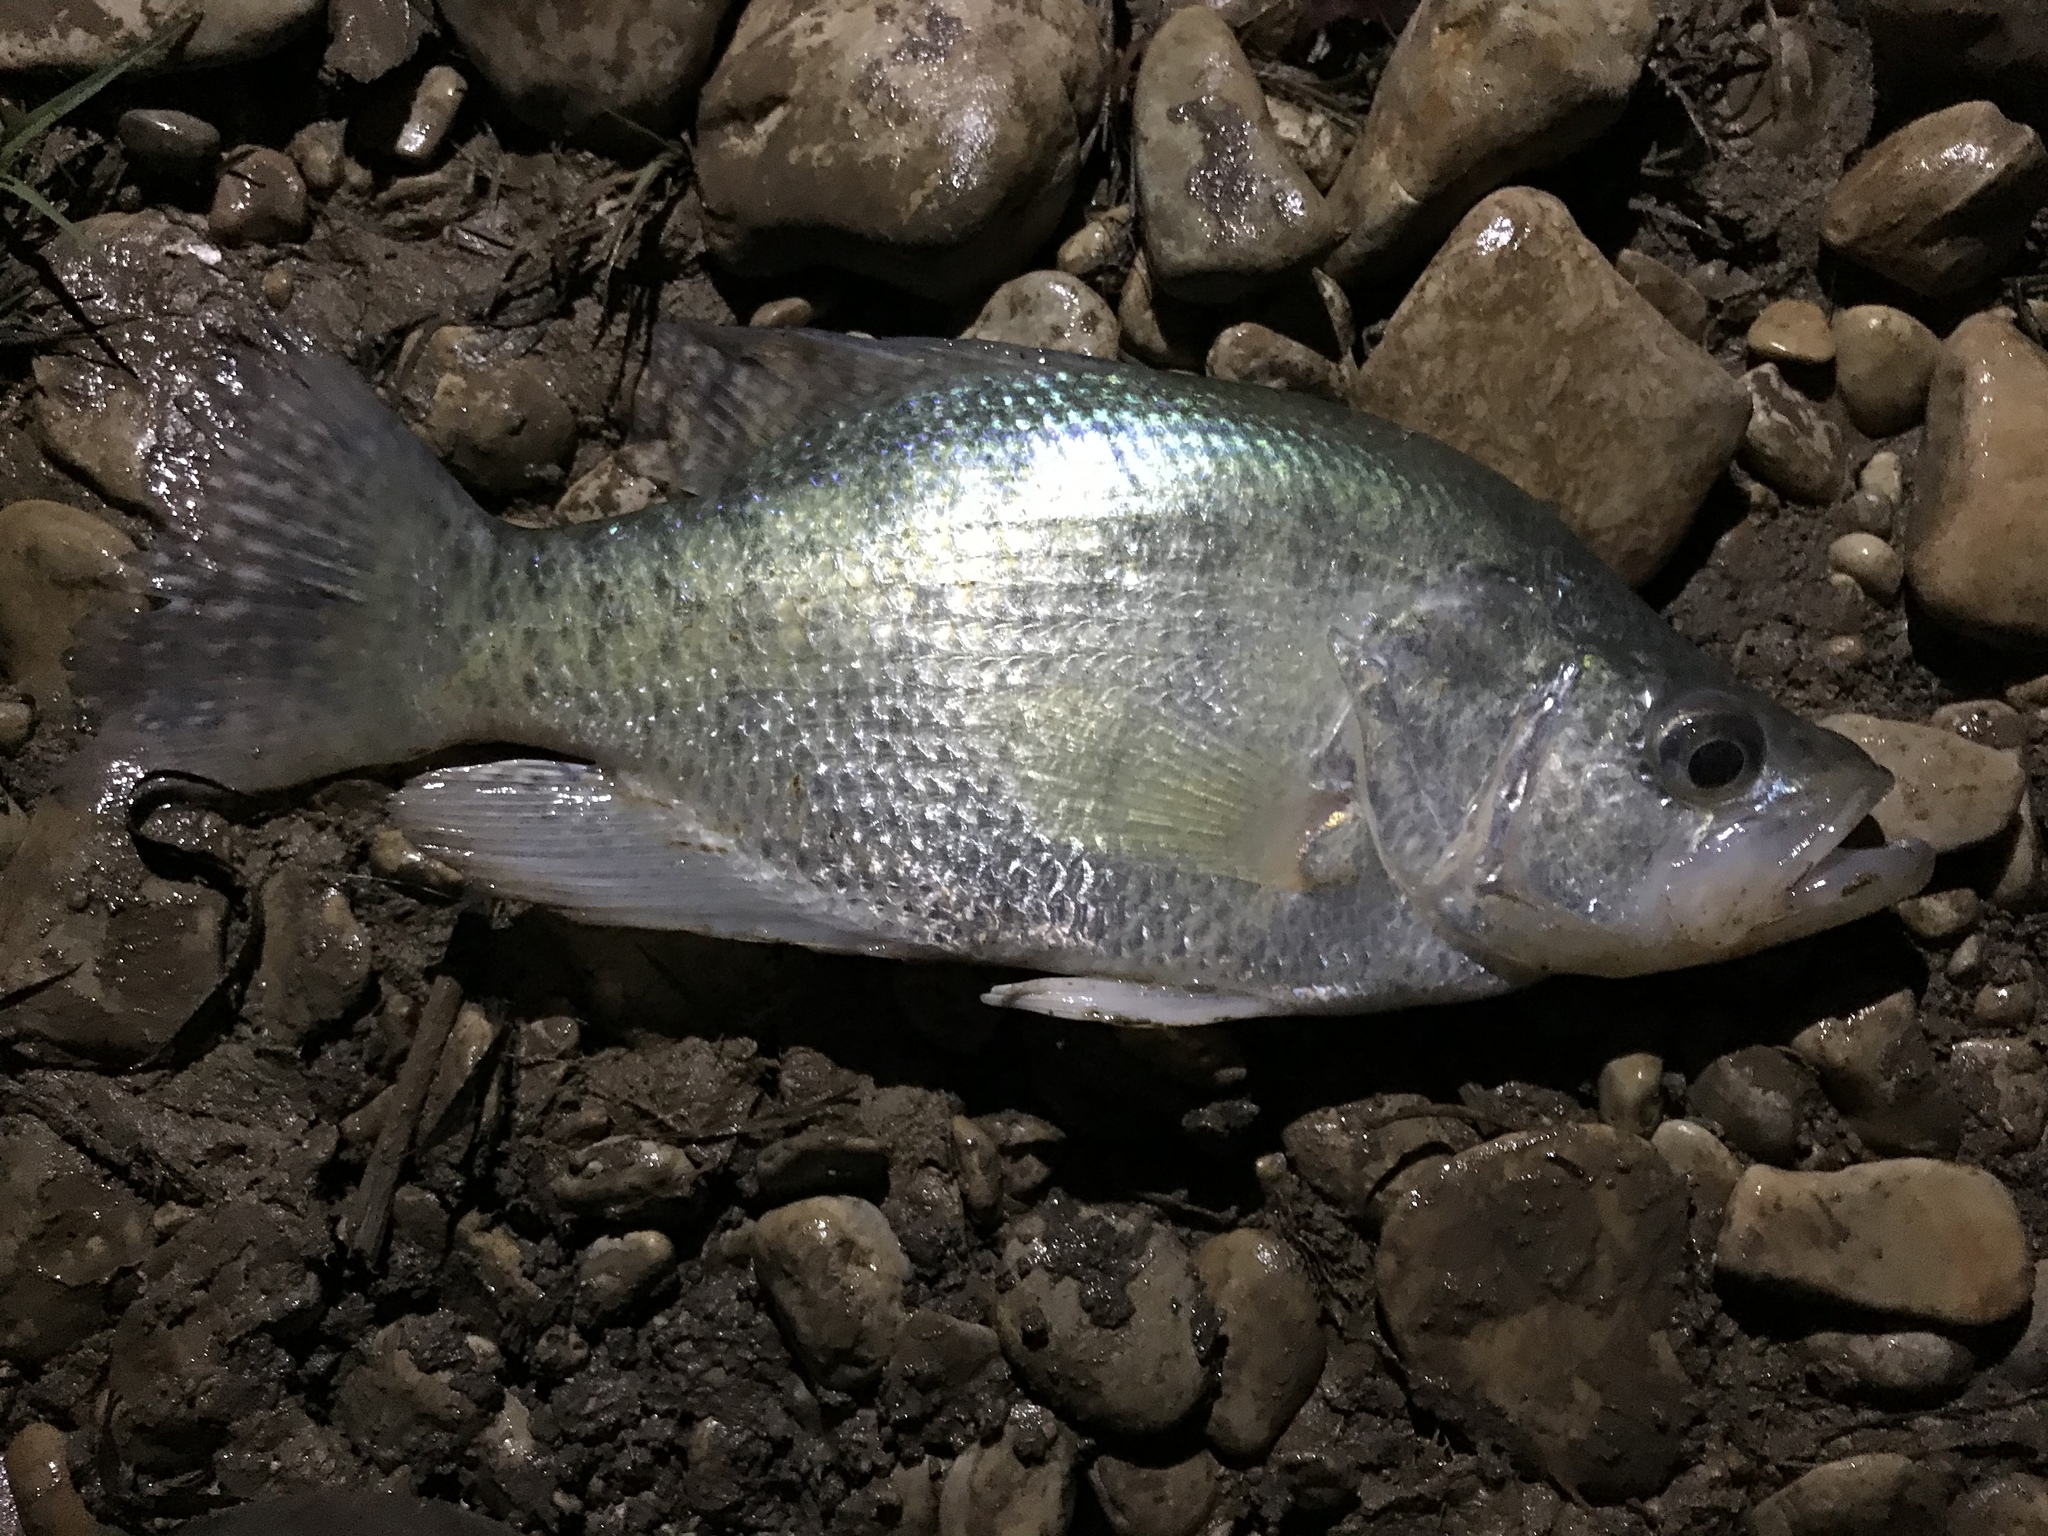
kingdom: Animalia
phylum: Chordata
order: Perciformes
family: Centrarchidae
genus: Pomoxis
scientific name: Pomoxis annularis
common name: White crappie
